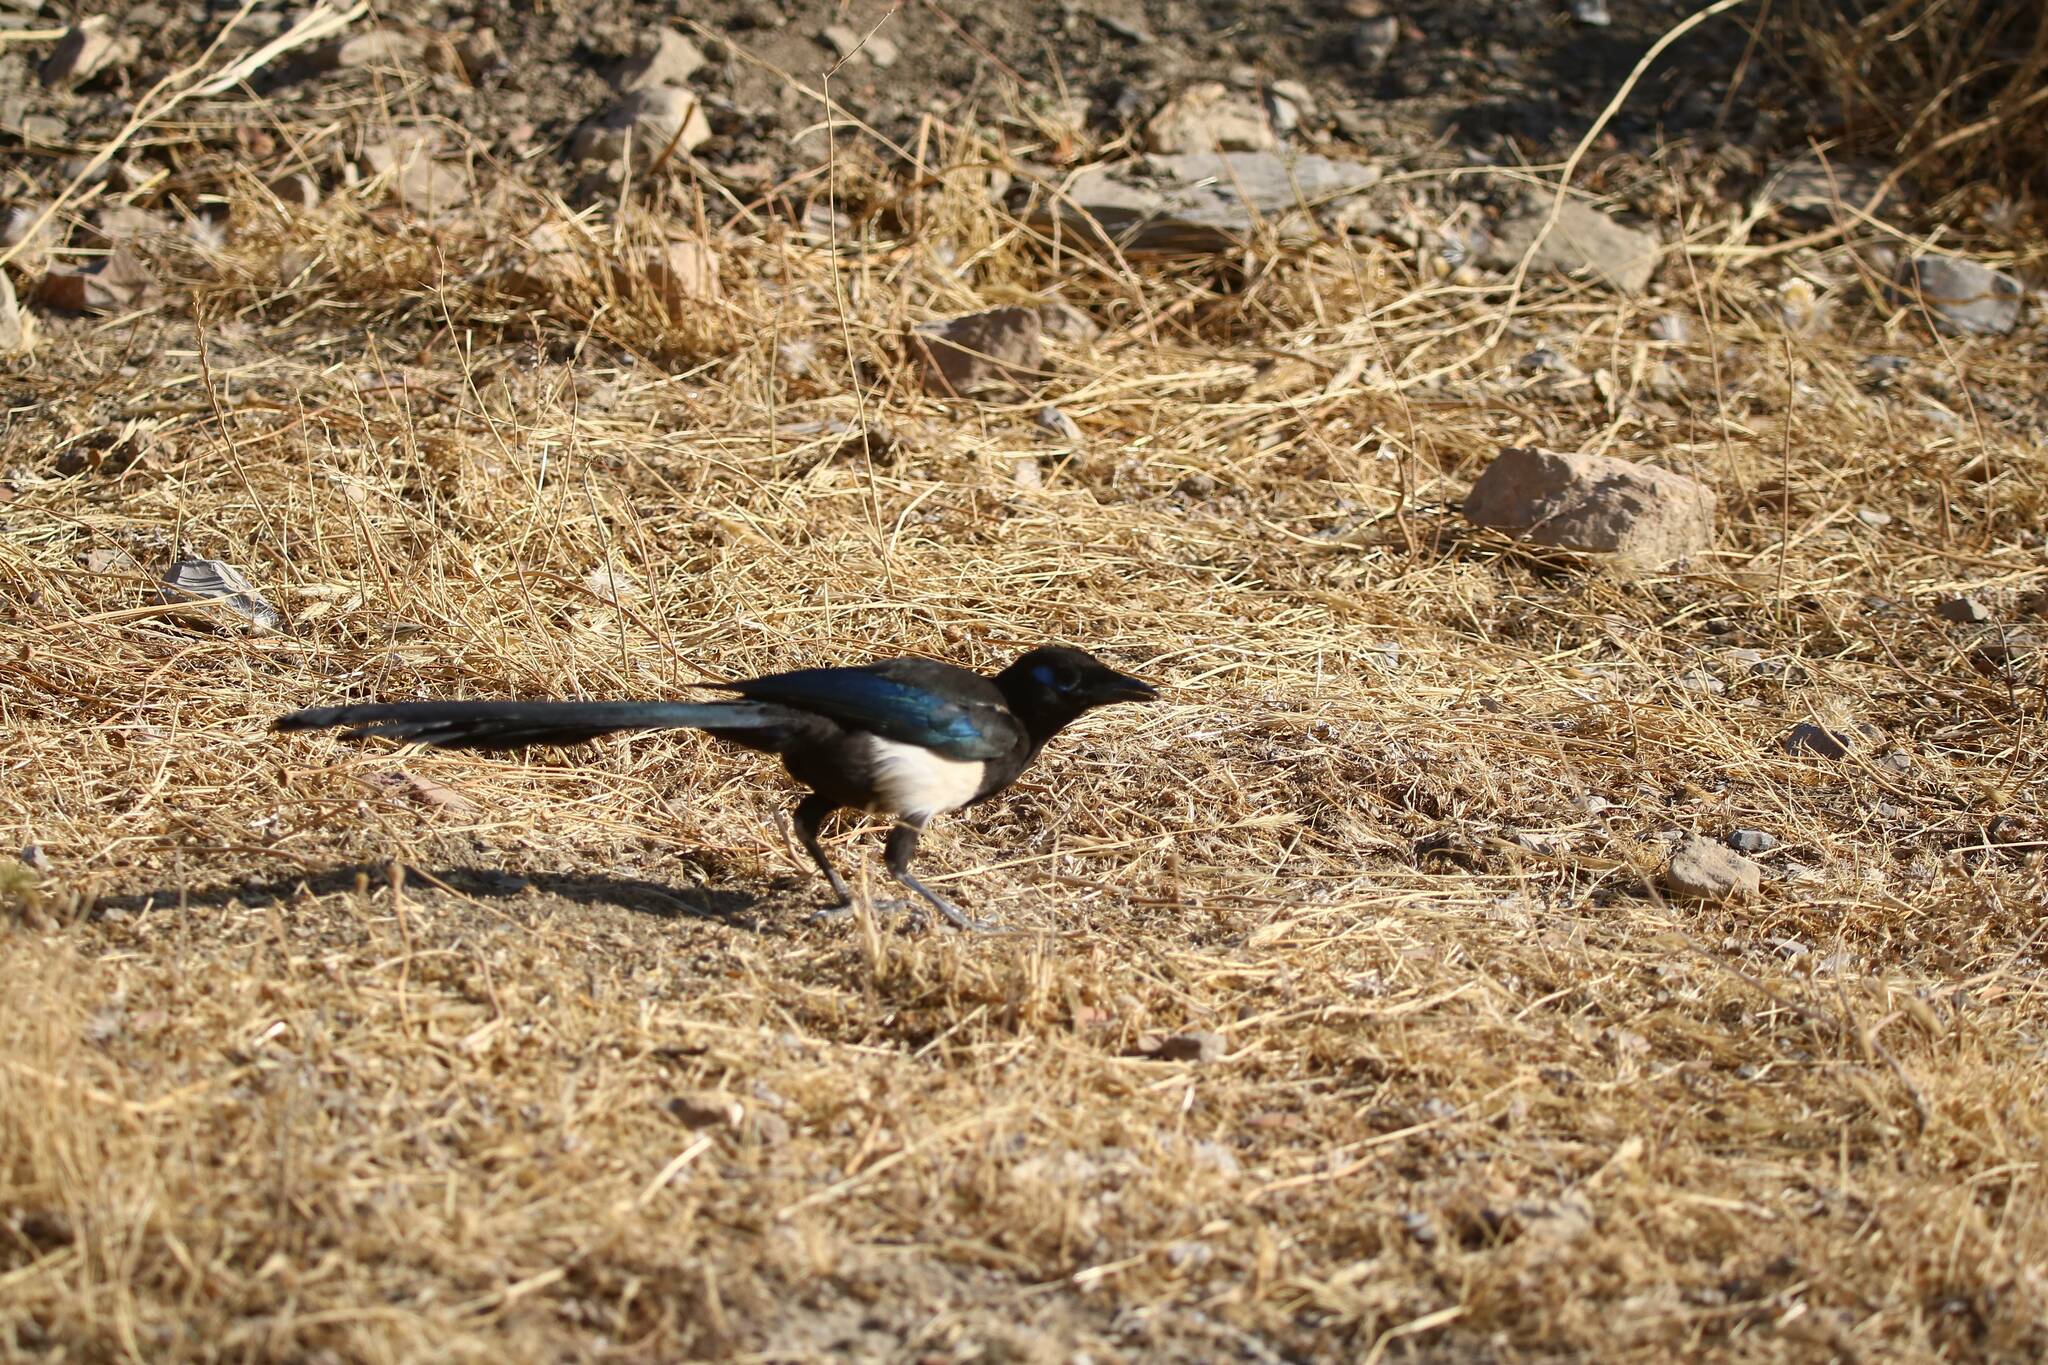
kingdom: Animalia
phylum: Chordata
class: Aves
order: Passeriformes
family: Corvidae
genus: Pica
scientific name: Pica mauritanica
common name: Maghreb magpie
